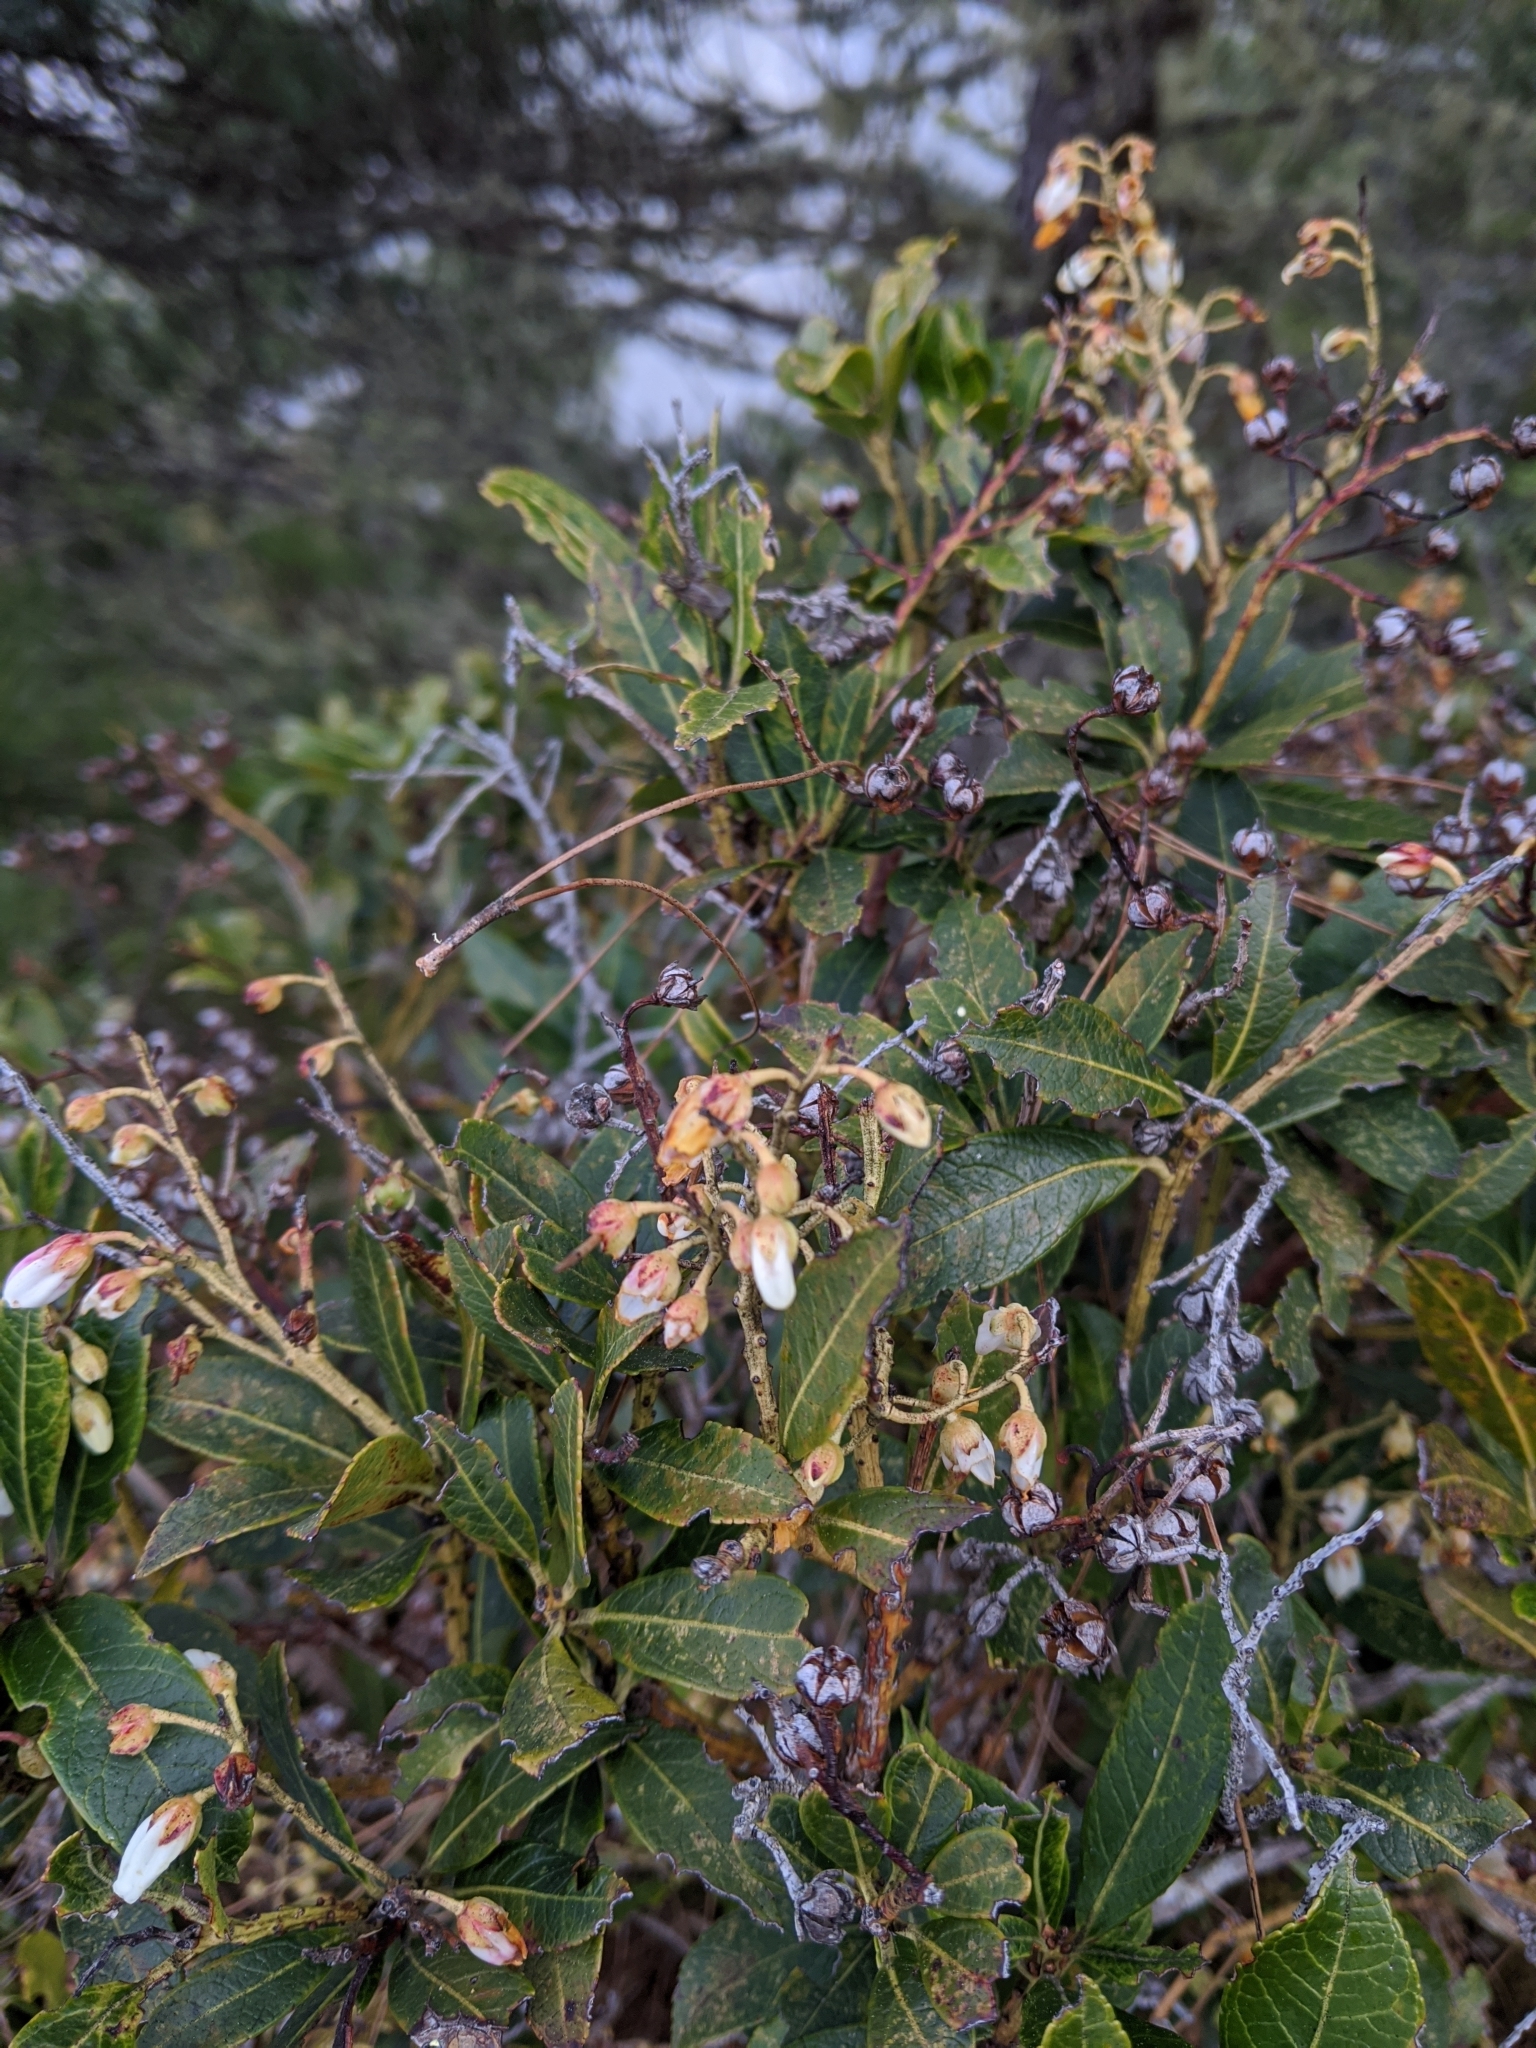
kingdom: Plantae
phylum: Tracheophyta
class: Magnoliopsida
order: Ericales
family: Ericaceae
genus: Pieris
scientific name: Pieris japonica
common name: Japanese pieris
